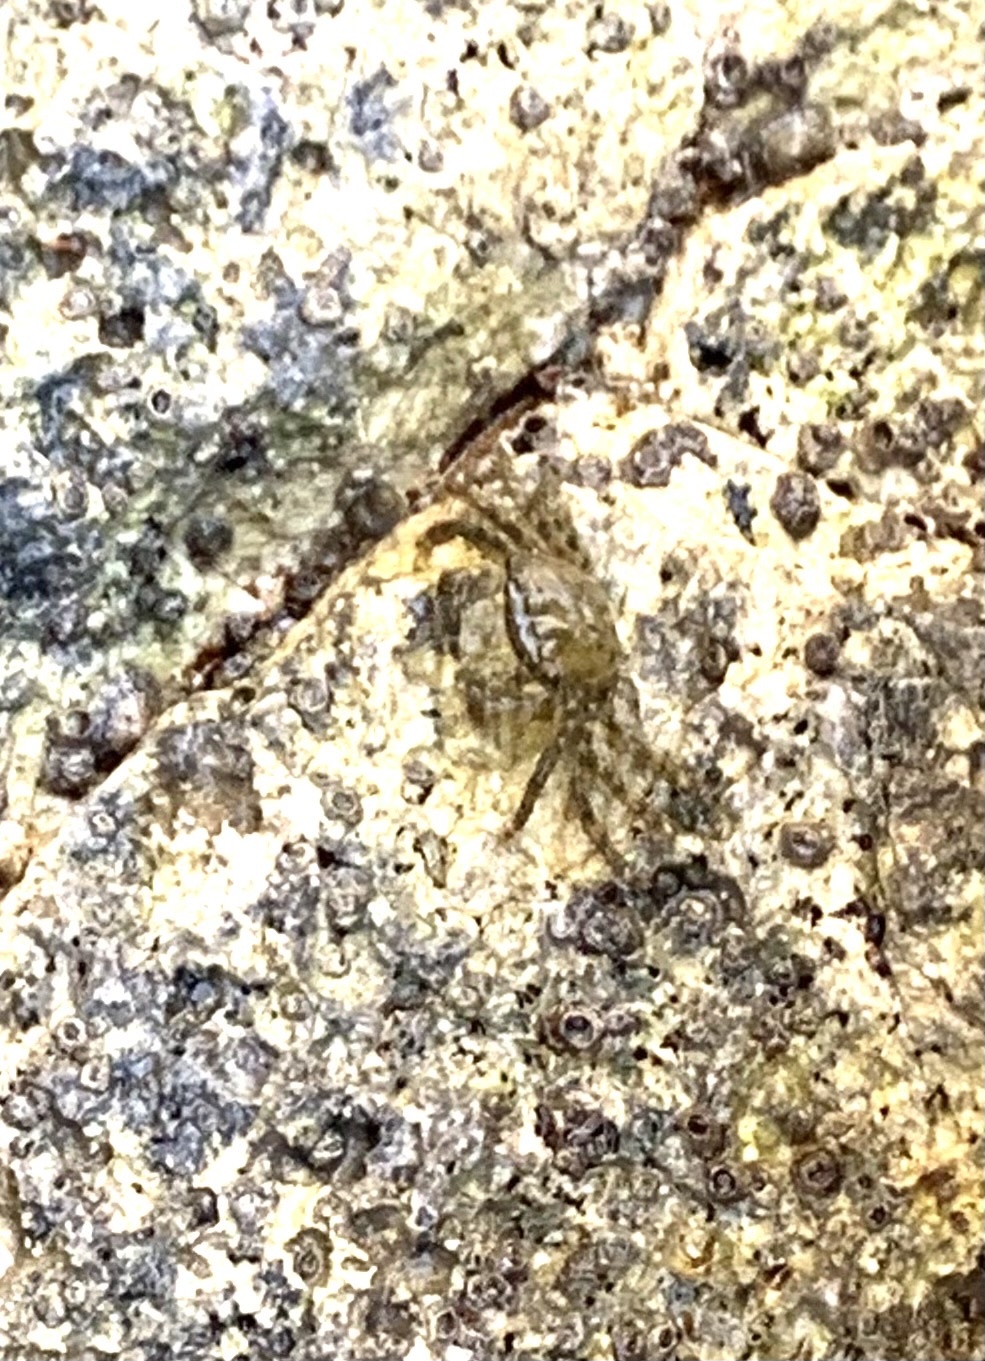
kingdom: Animalia
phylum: Arthropoda
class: Malacostraca
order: Decapoda
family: Grapsidae
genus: Pachygrapsus
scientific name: Pachygrapsus marmoratus
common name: Marbled rock crab
